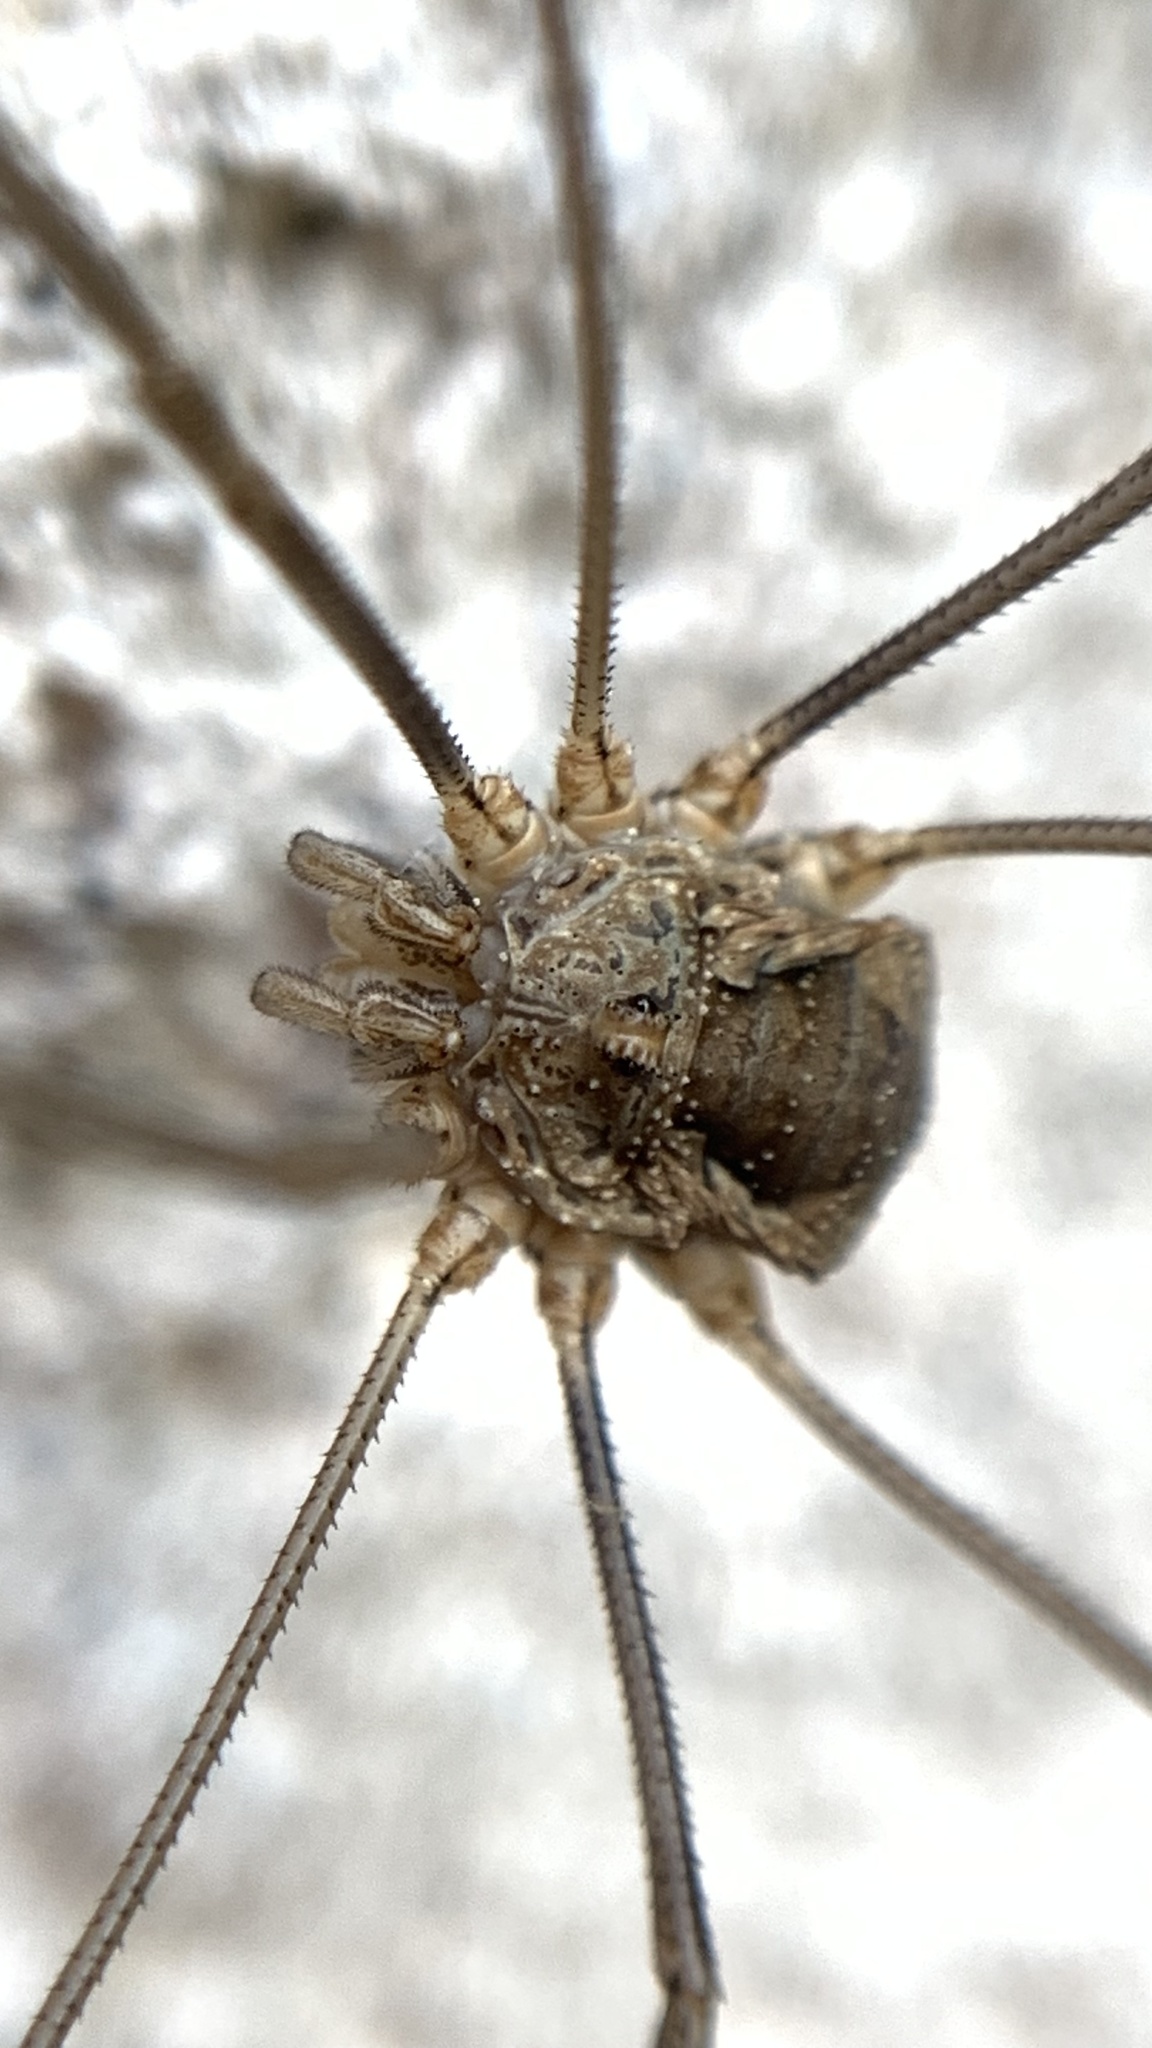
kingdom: Animalia
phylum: Arthropoda
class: Arachnida
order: Opiliones
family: Phalangiidae
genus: Phalangium
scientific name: Phalangium opilio
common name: Daddy longleg
